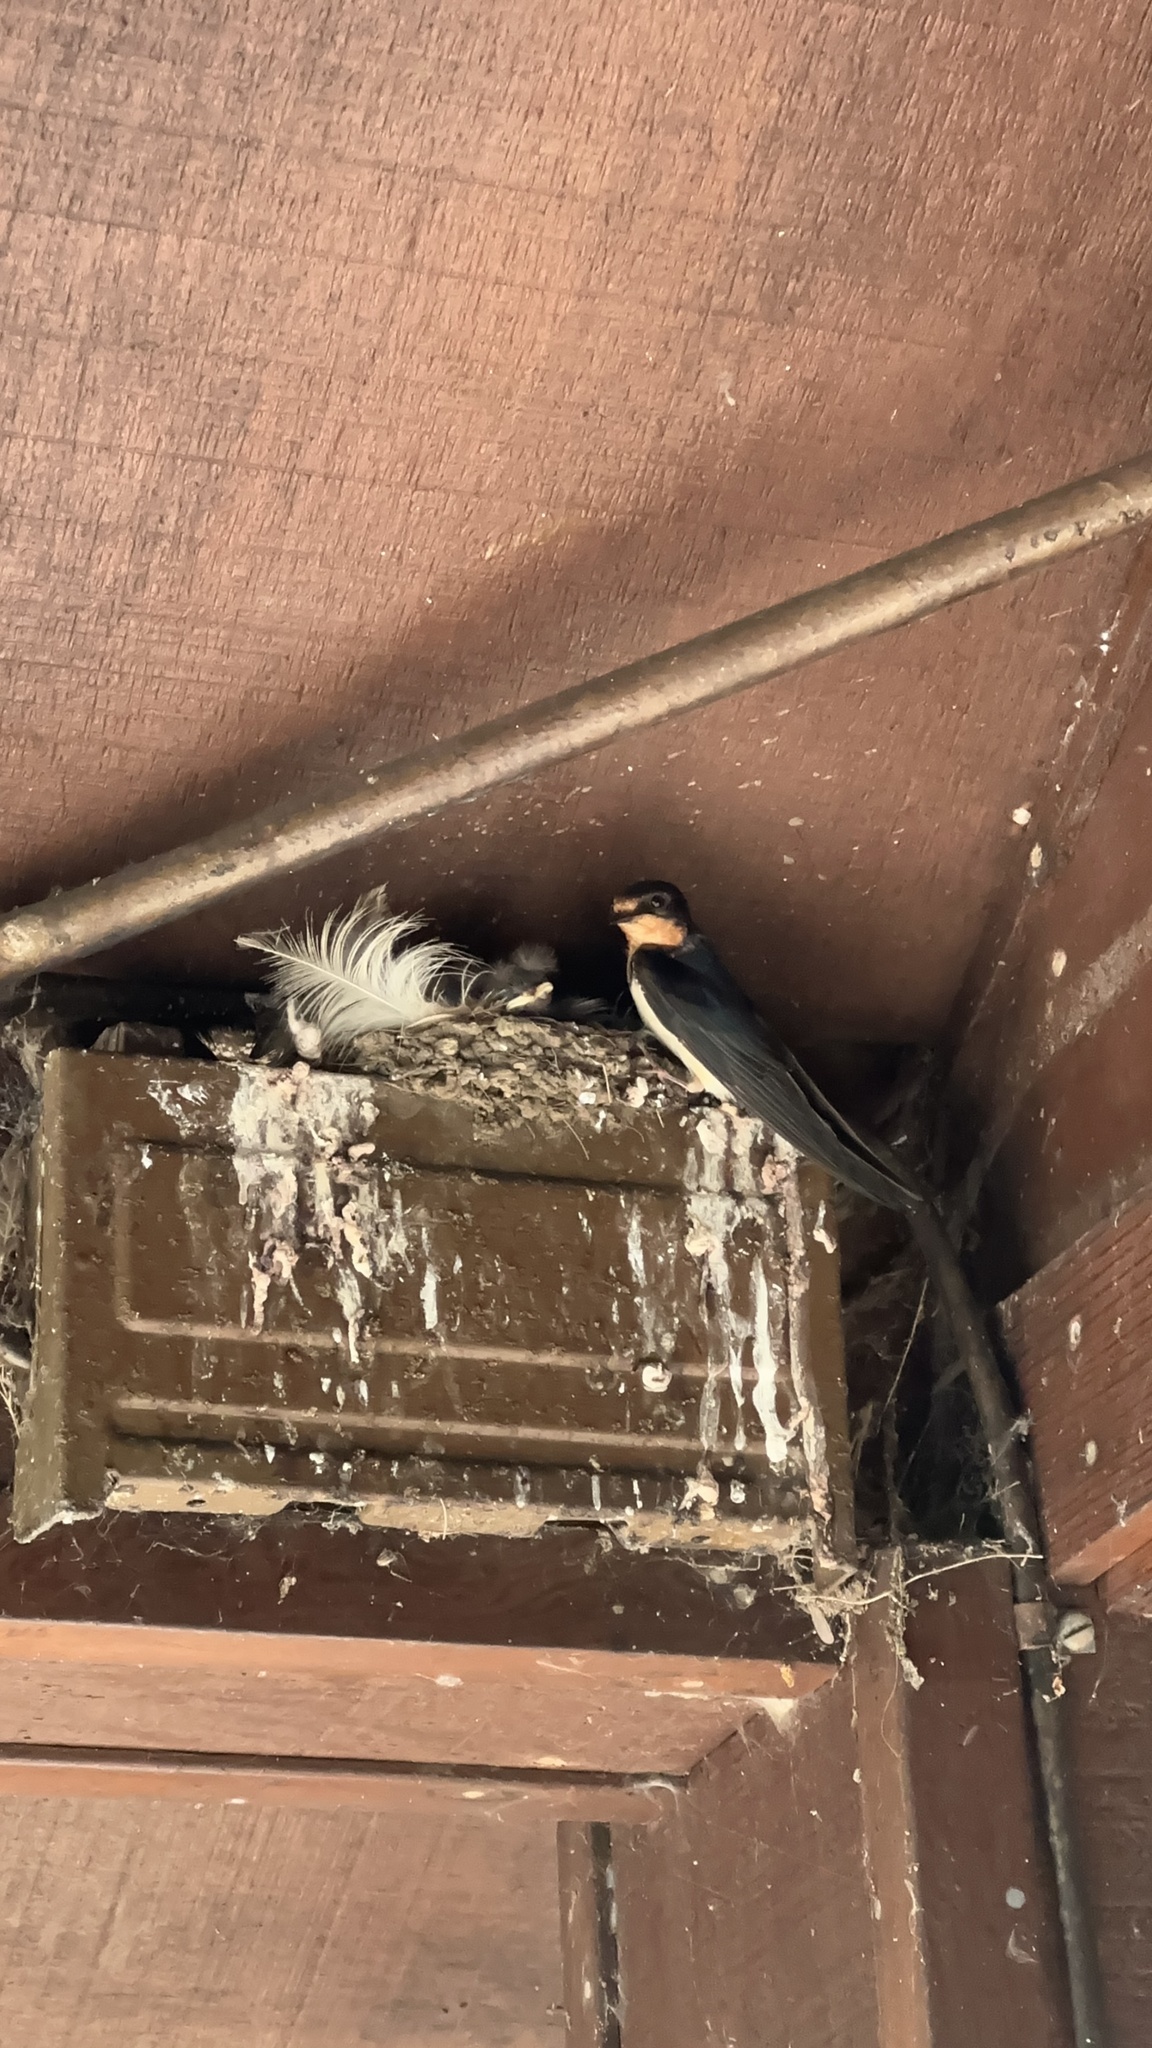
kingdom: Animalia
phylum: Chordata
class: Aves
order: Passeriformes
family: Hirundinidae
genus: Hirundo
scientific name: Hirundo rustica
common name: Barn swallow
